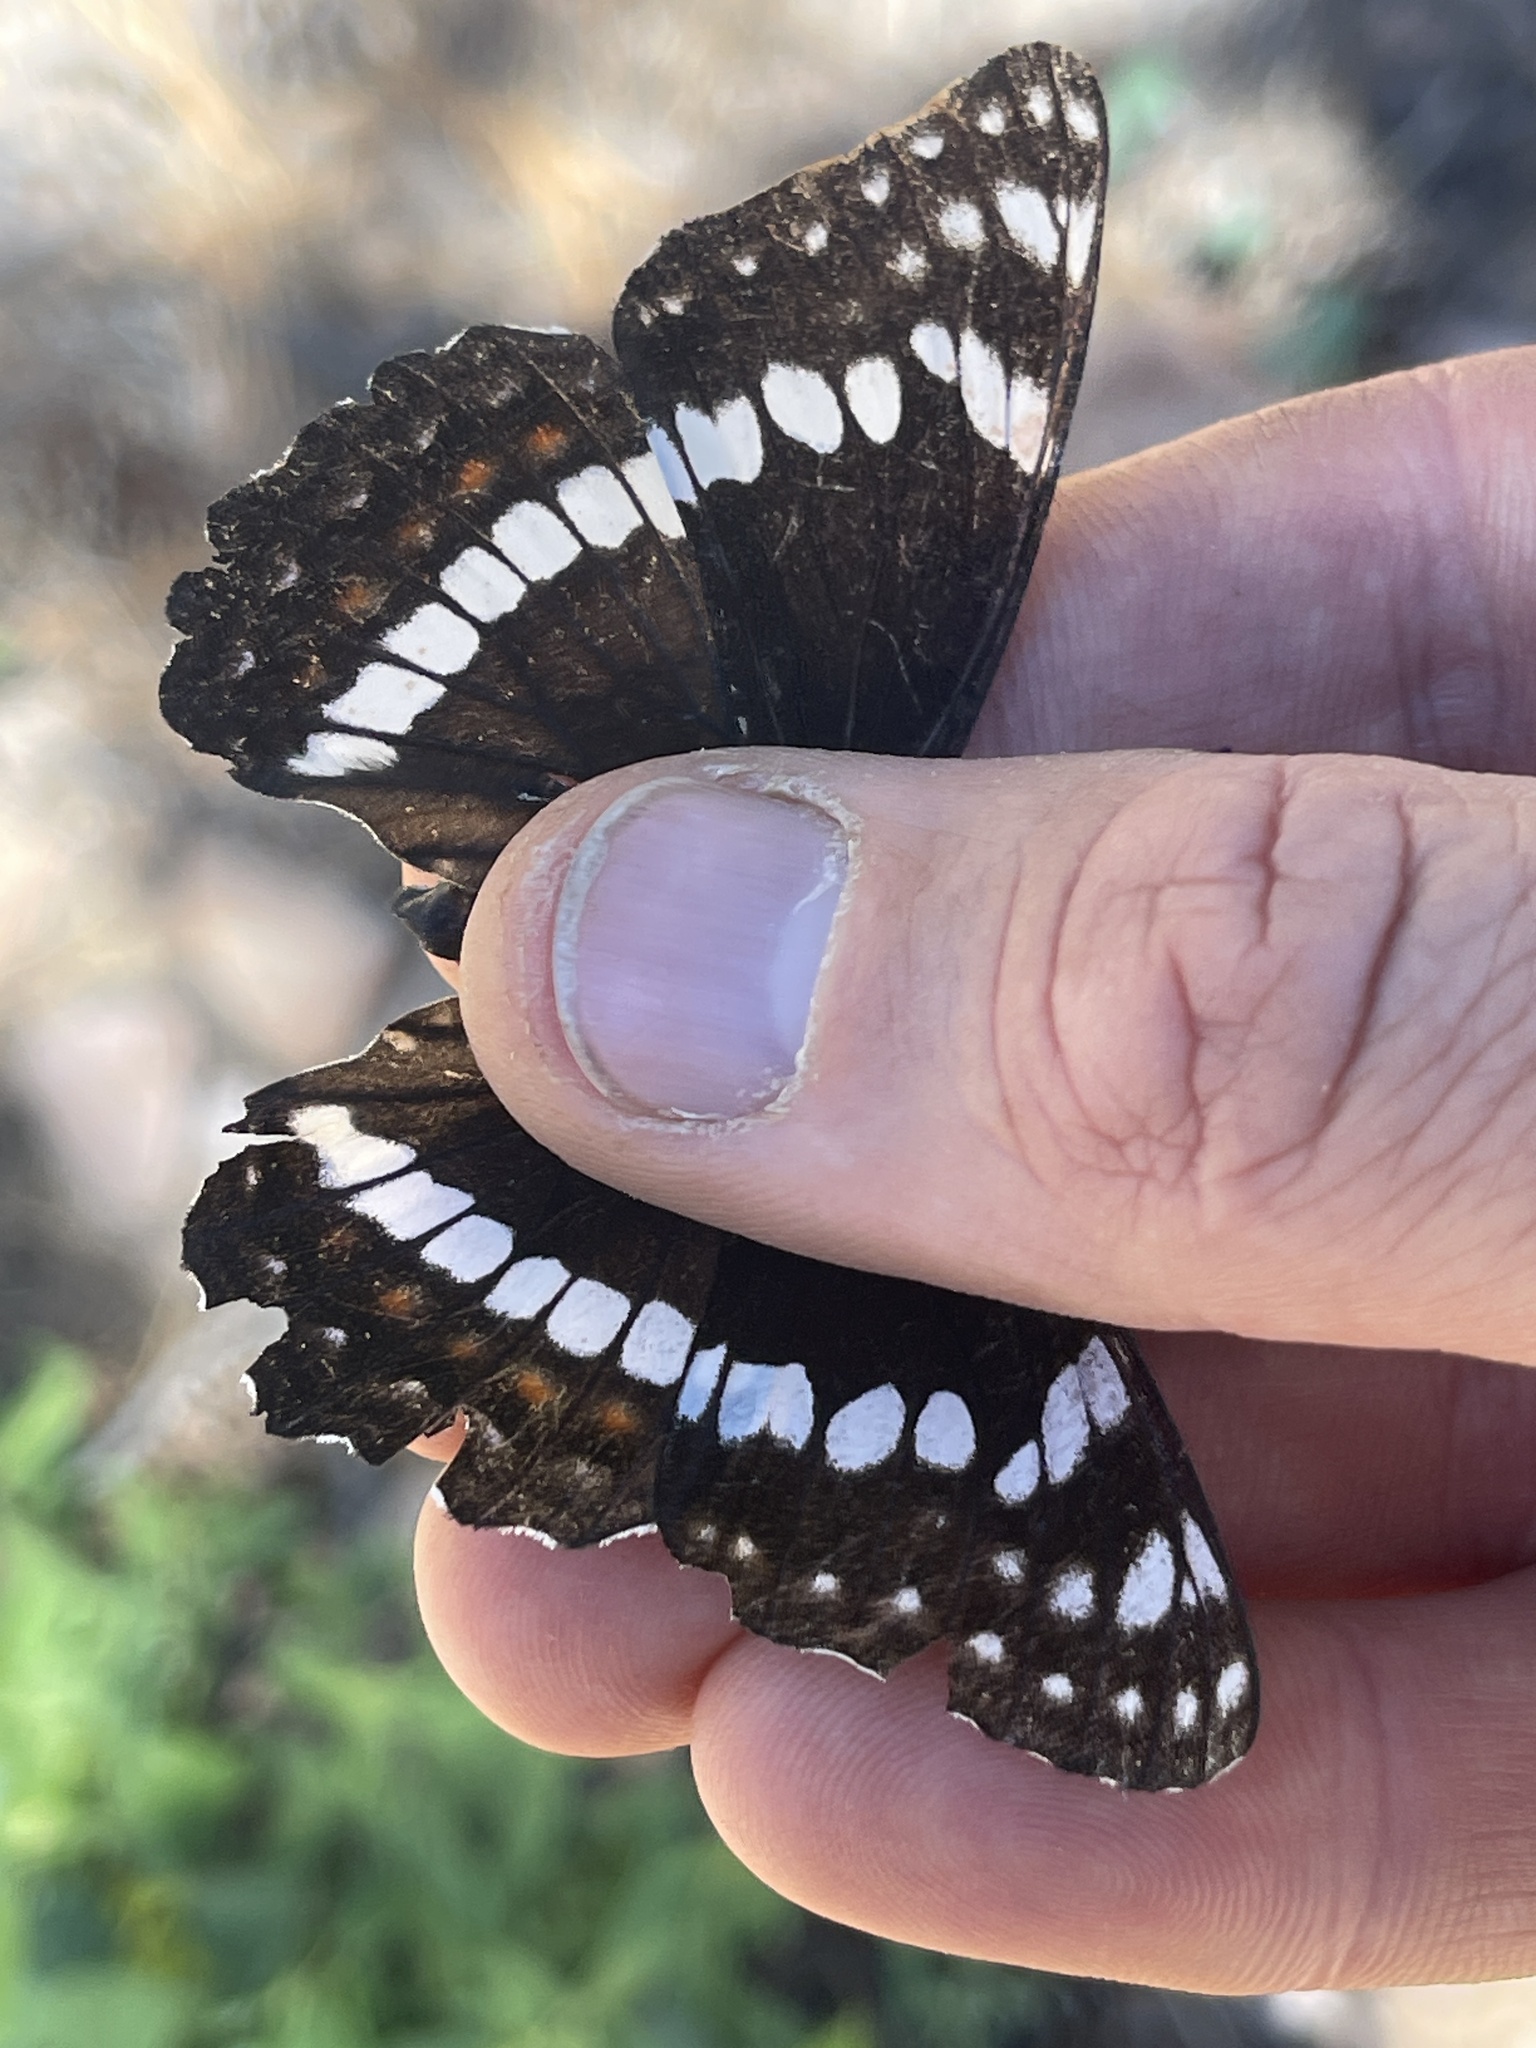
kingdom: Animalia
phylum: Arthropoda
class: Insecta
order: Lepidoptera
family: Nymphalidae
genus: Limenitis
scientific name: Limenitis weidermeyerii
